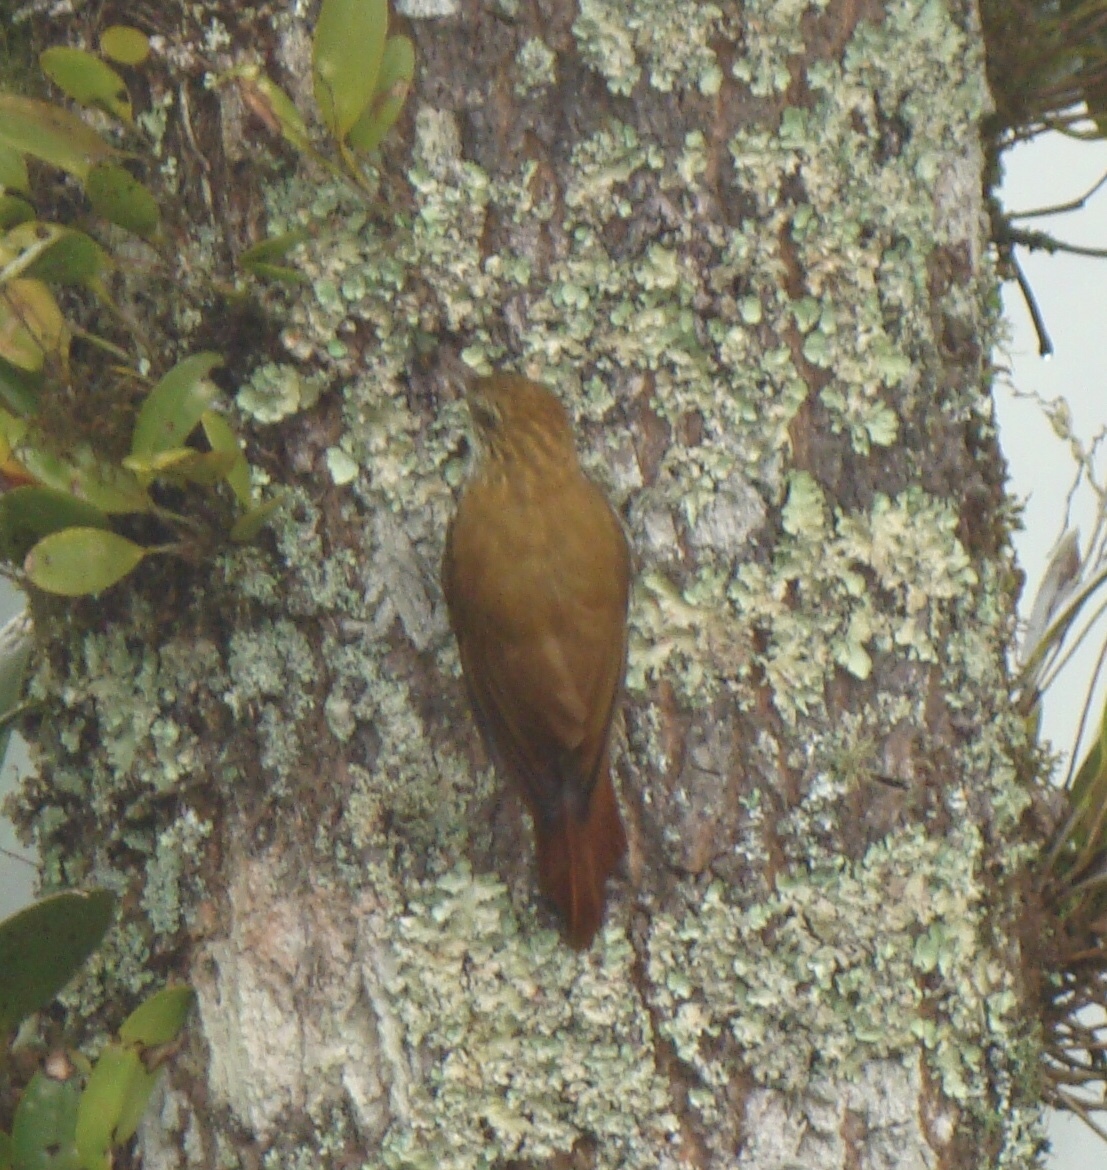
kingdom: Animalia
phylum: Chordata
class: Aves
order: Passeriformes
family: Furnariidae
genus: Lepidocolaptes
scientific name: Lepidocolaptes squamatus
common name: Scaled woodcreeper
